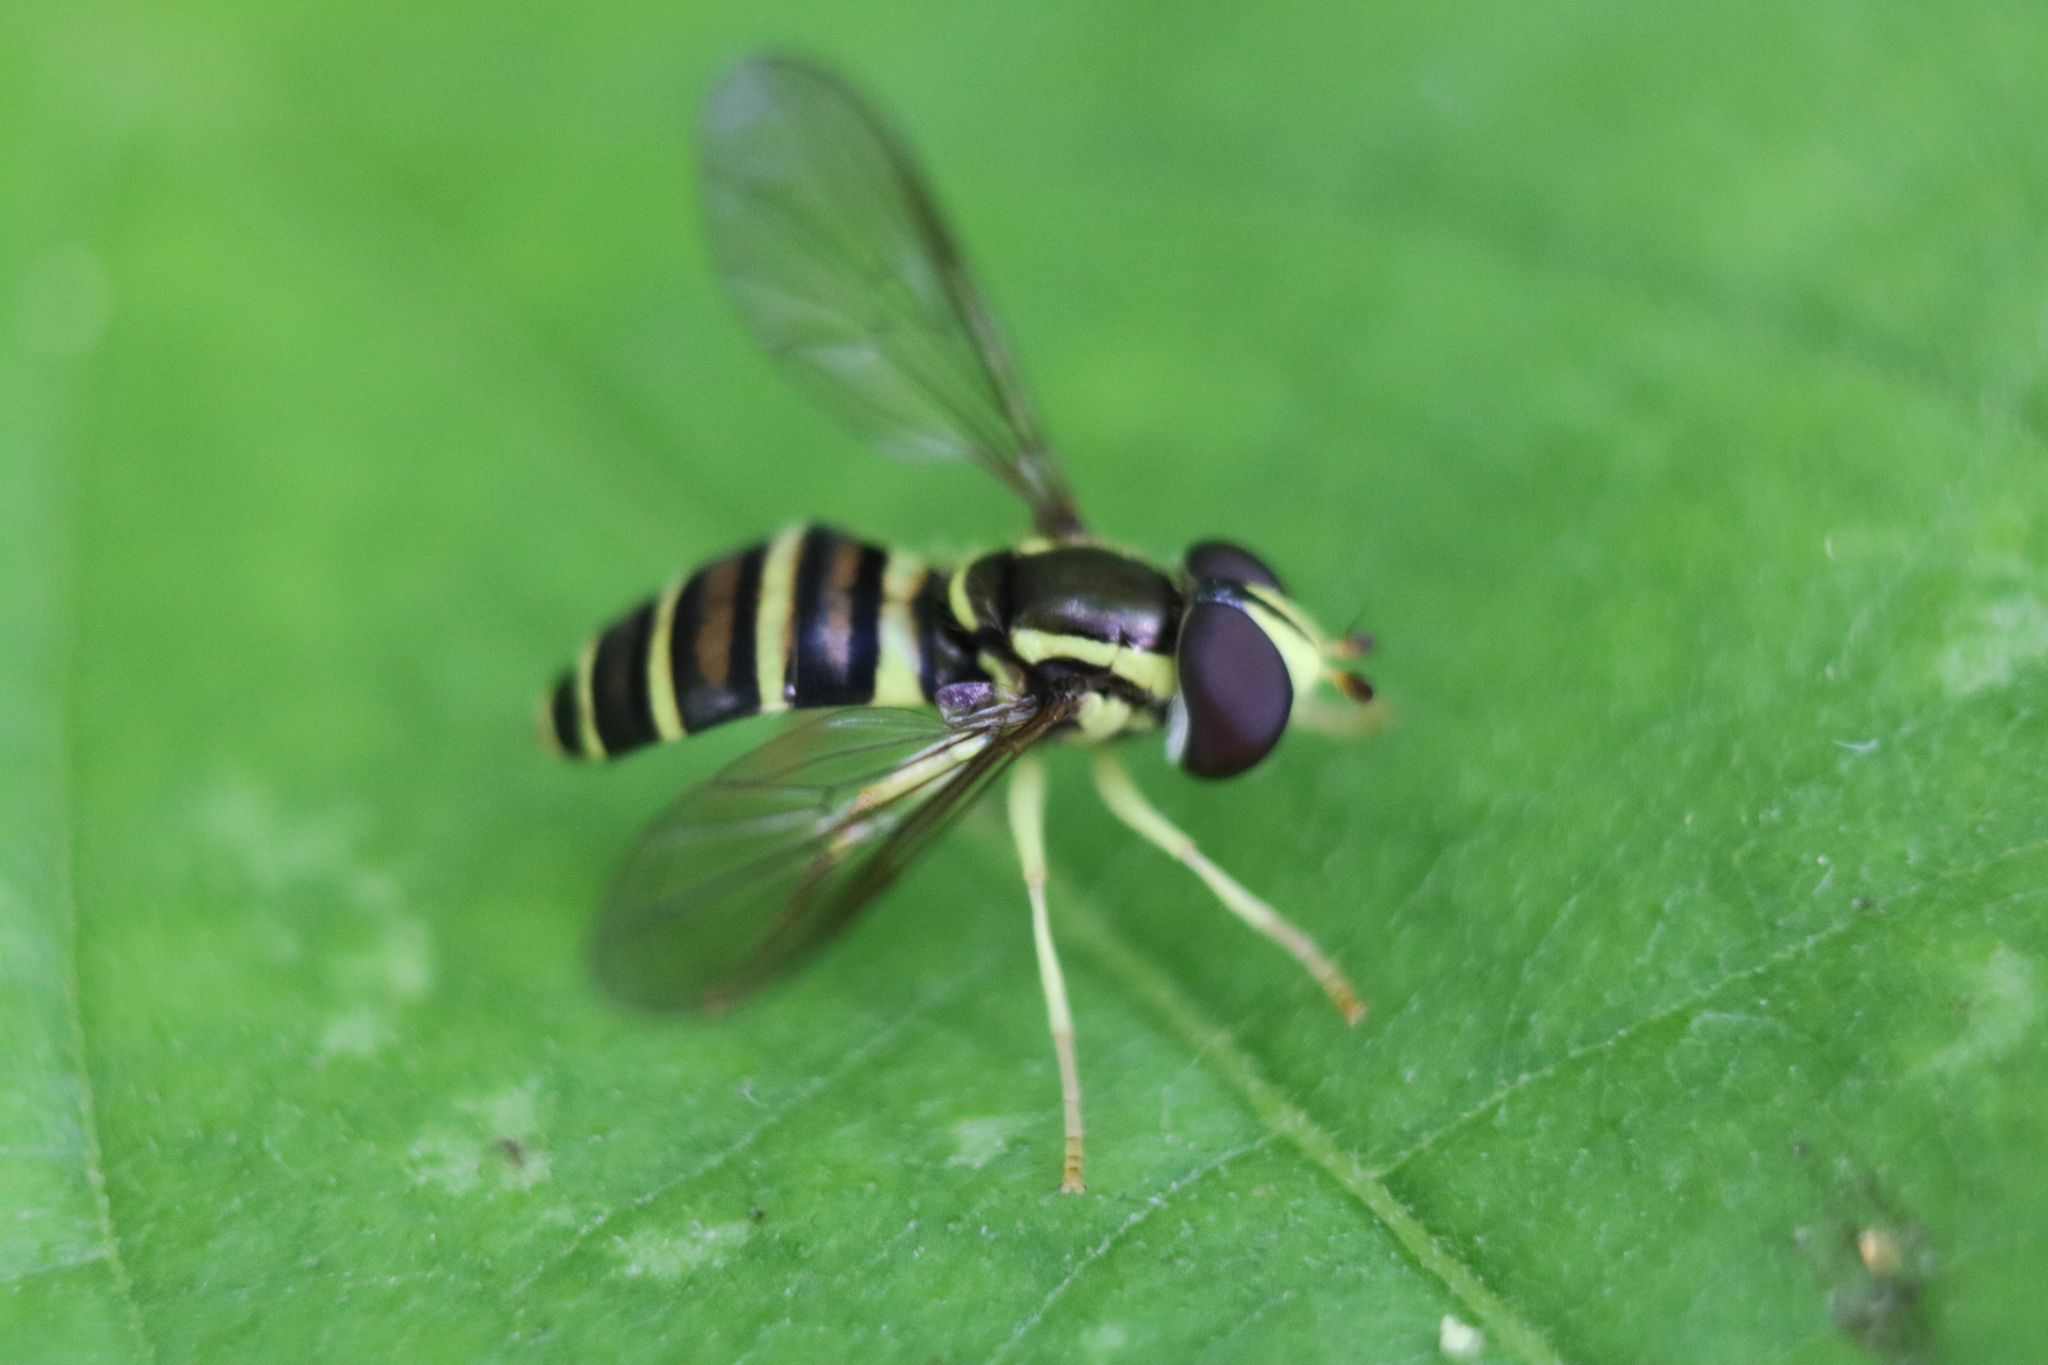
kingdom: Animalia
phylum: Arthropoda
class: Insecta
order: Diptera
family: Syrphidae
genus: Philhelius
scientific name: Philhelius flavipes
